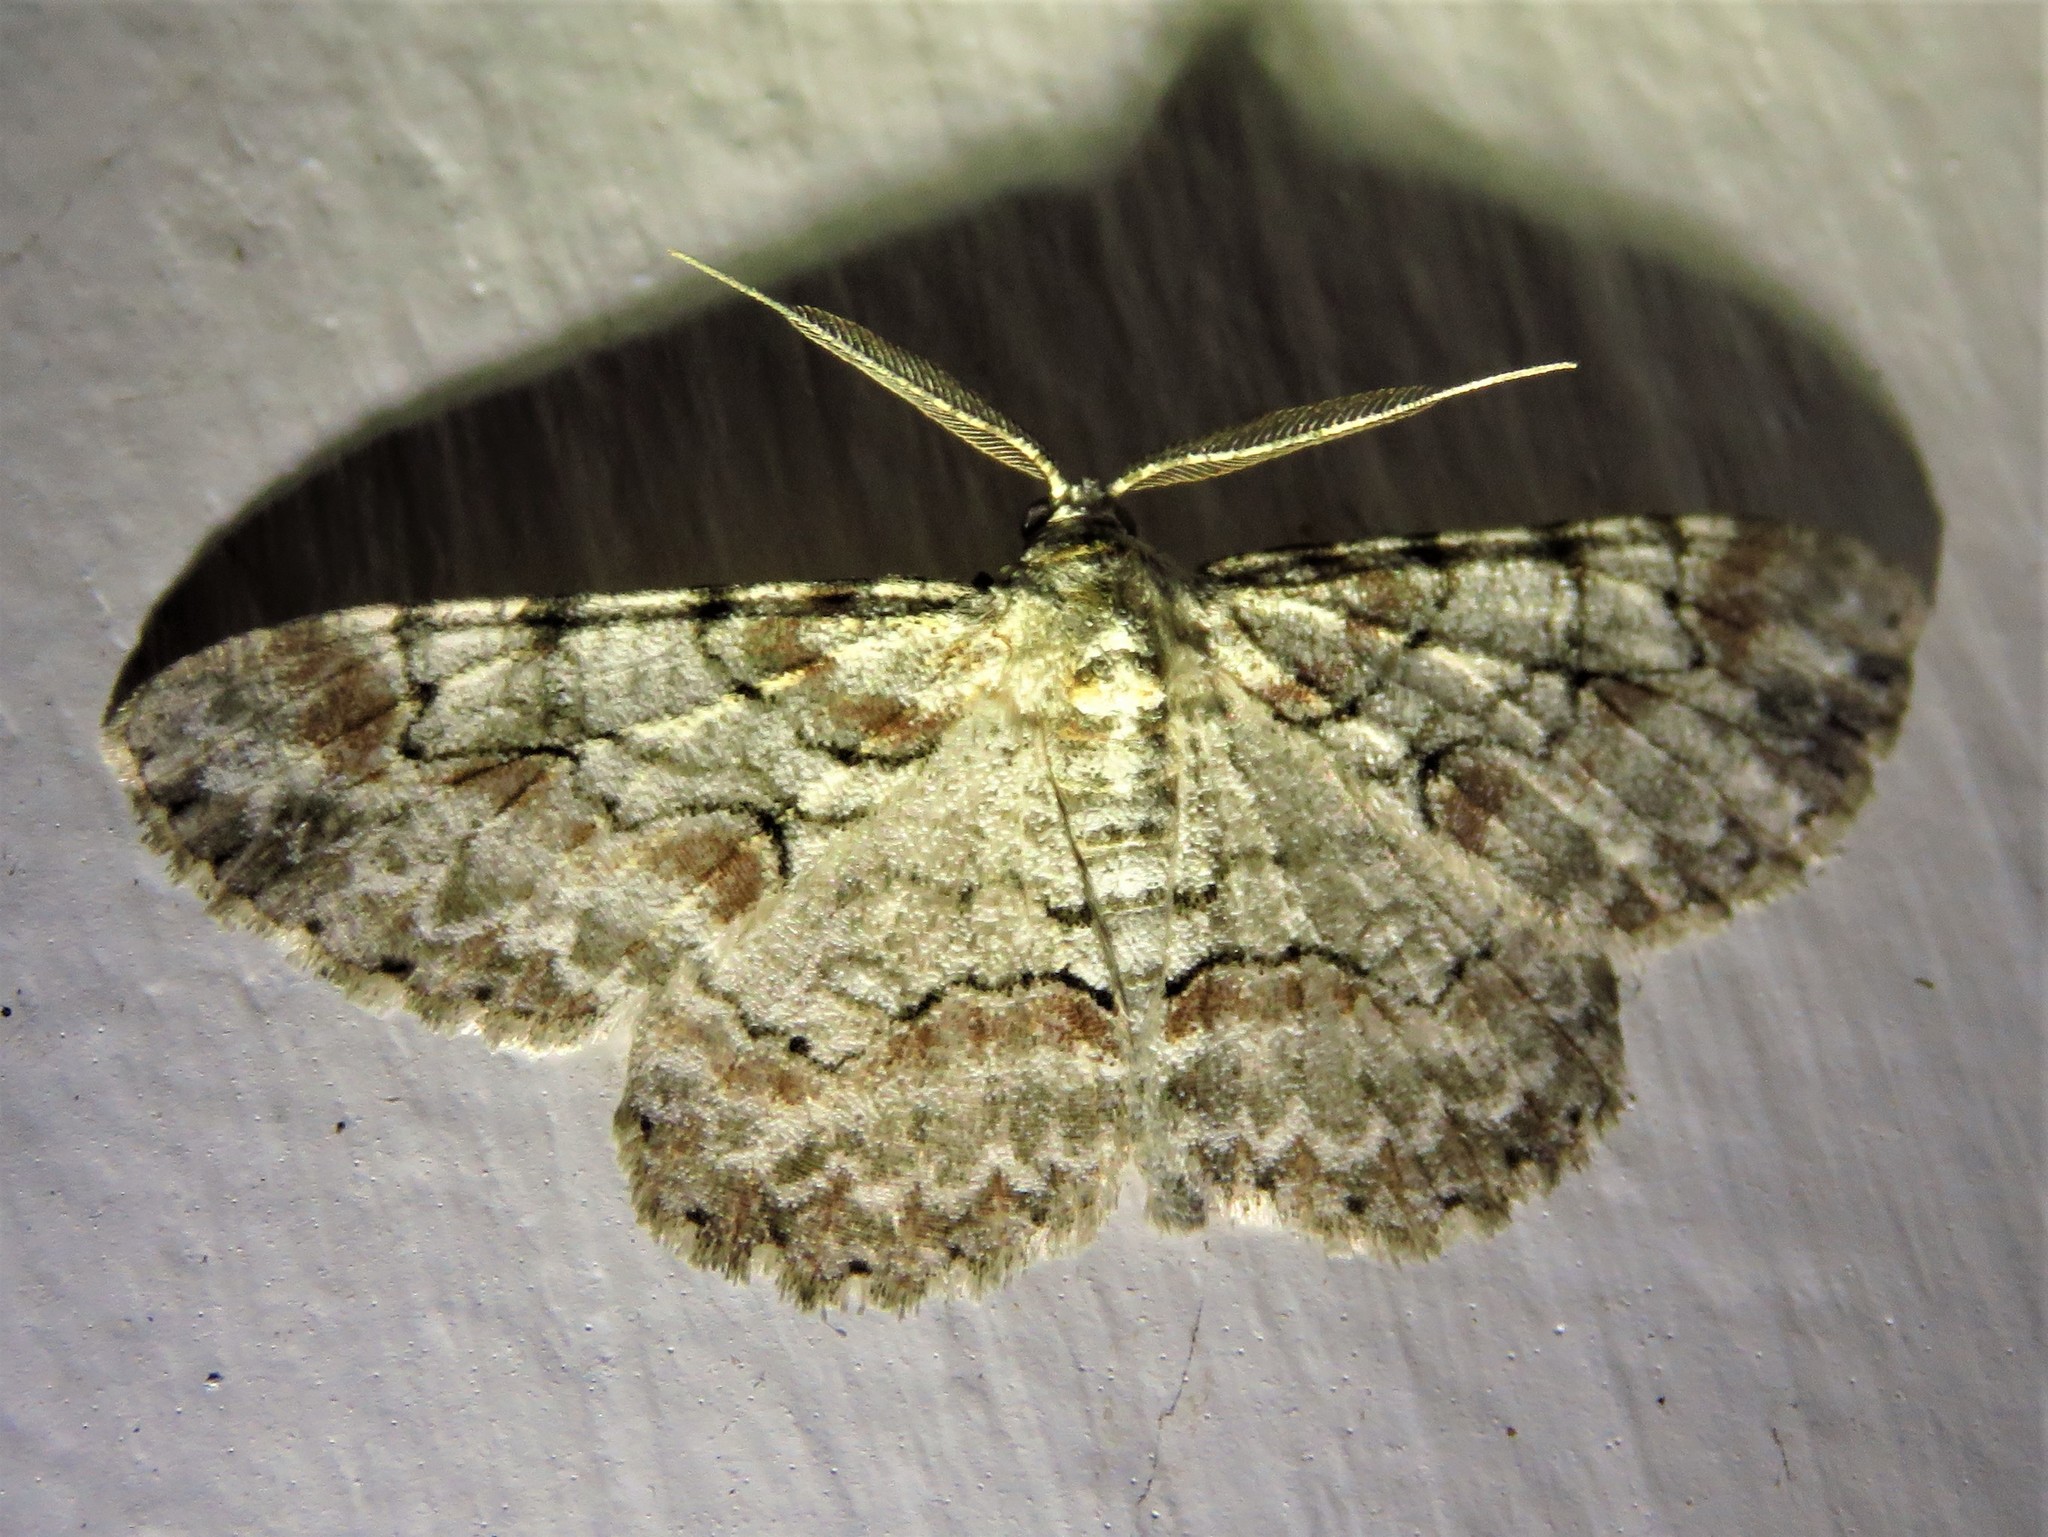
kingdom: Animalia
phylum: Arthropoda
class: Insecta
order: Lepidoptera
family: Geometridae
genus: Iridopsis
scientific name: Iridopsis defectaria
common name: Brown-shaded gray
